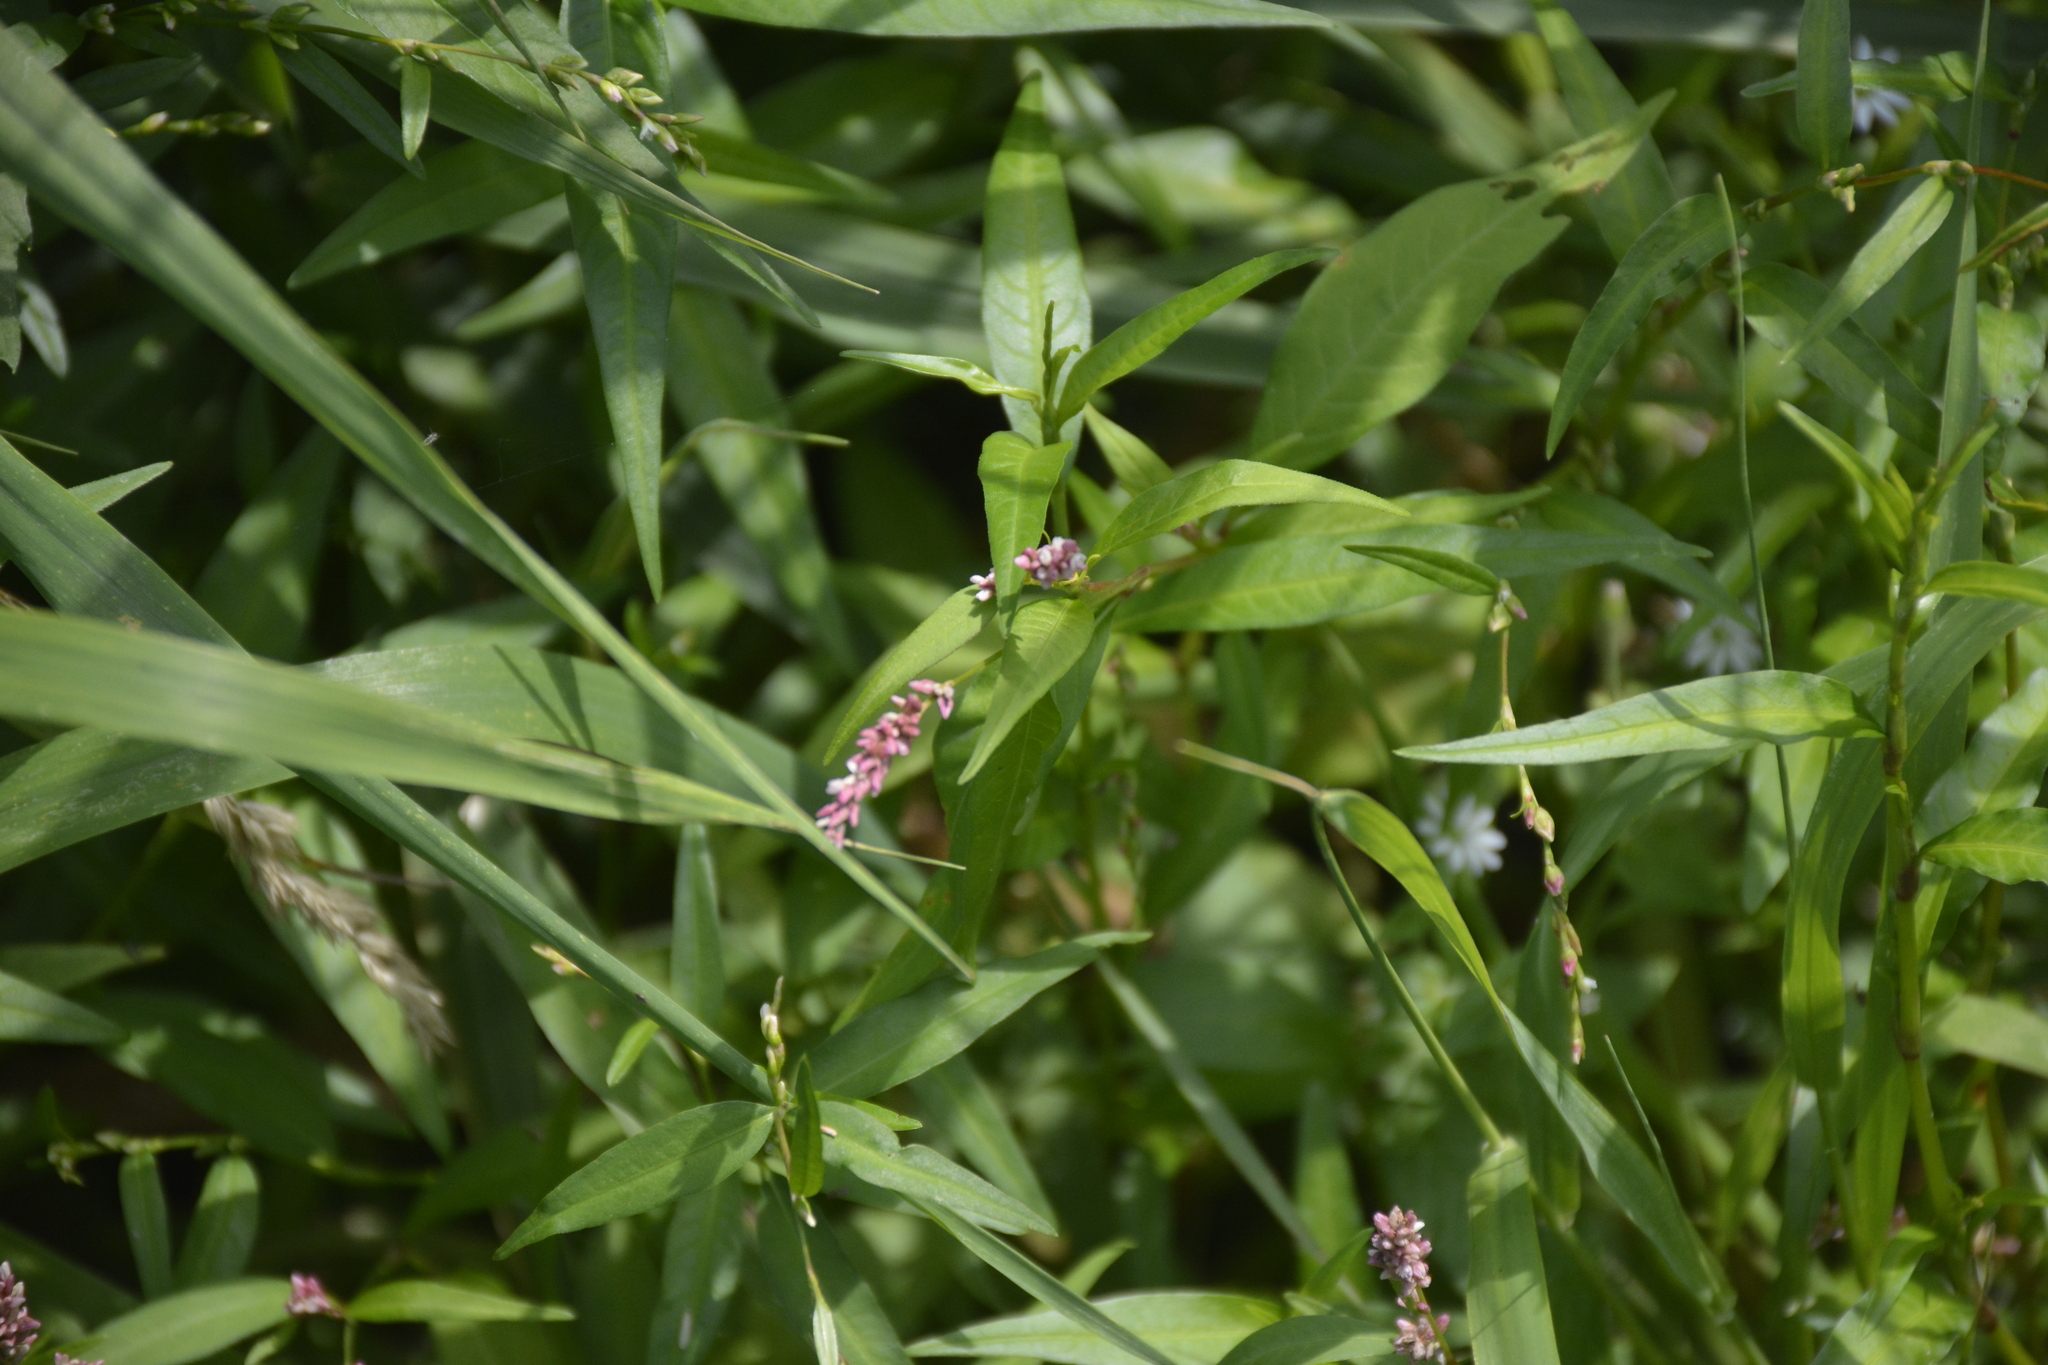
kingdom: Plantae
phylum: Tracheophyta
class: Magnoliopsida
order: Caryophyllales
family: Polygonaceae
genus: Persicaria
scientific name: Persicaria minor
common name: Small water-pepper
